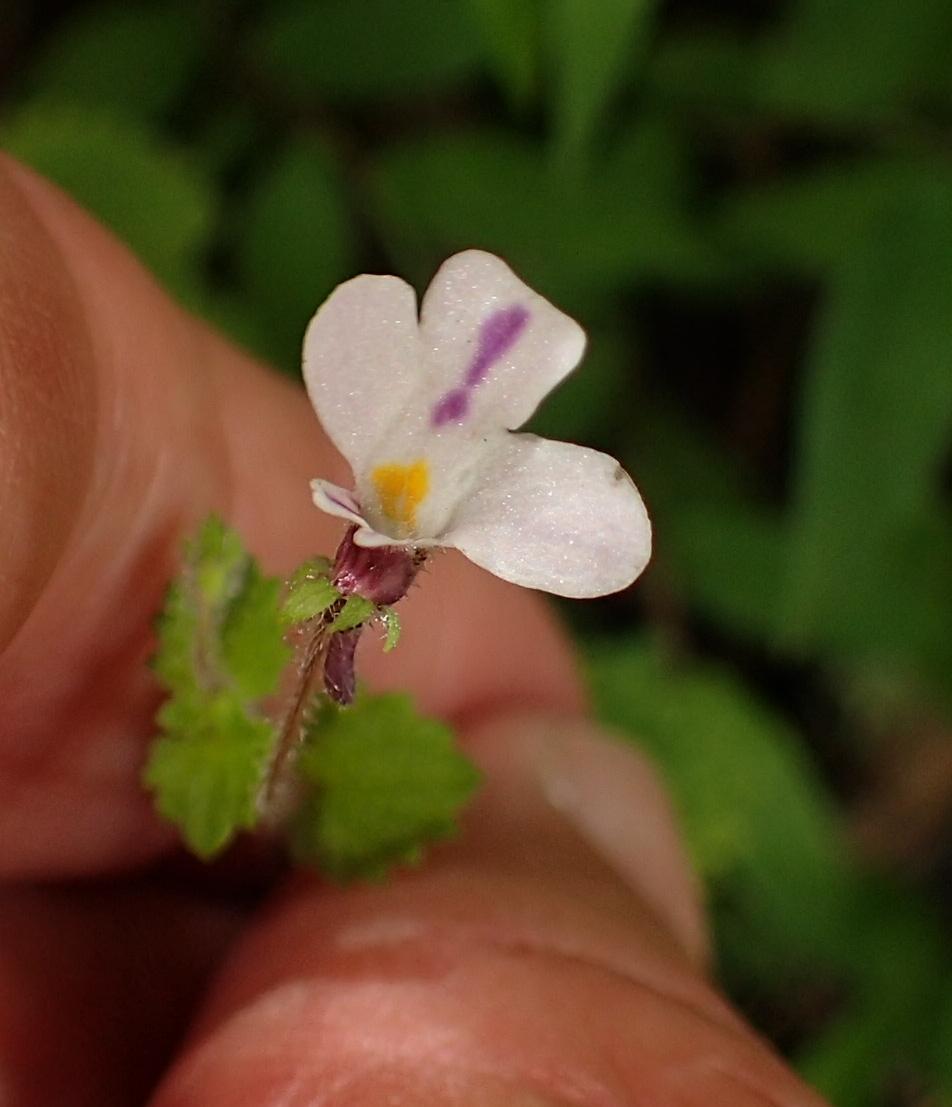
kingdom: Plantae
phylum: Tracheophyta
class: Magnoliopsida
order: Lamiales
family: Scrophulariaceae
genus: Diclis
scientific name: Diclis reptans
